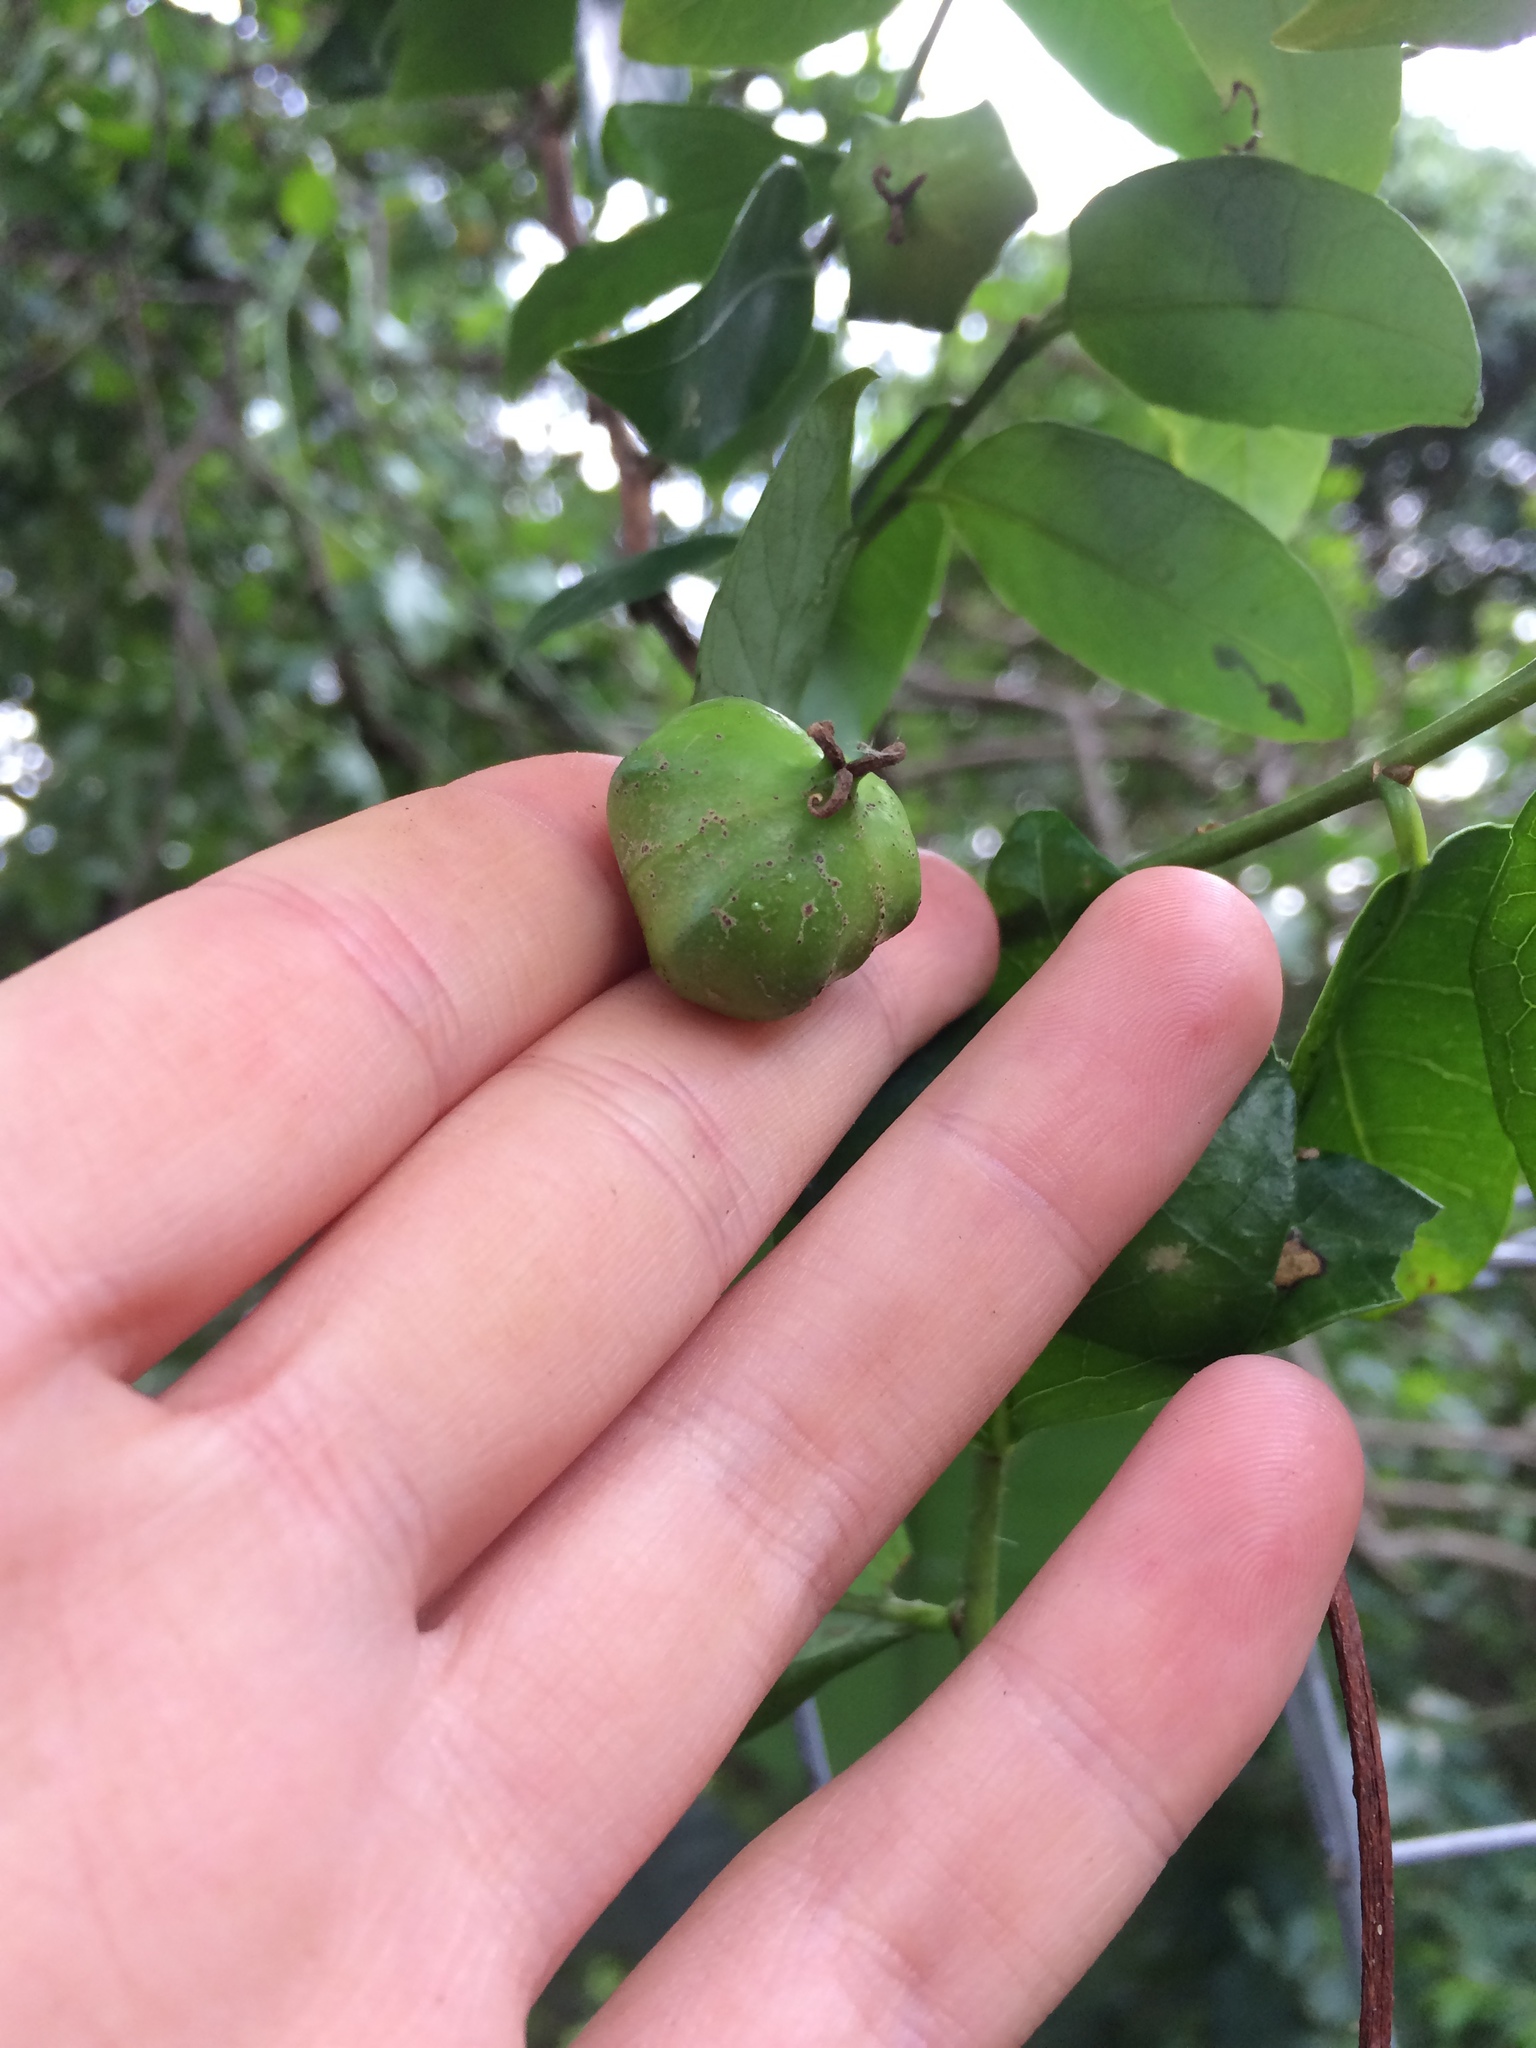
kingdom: Plantae
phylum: Tracheophyta
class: Magnoliopsida
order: Malpighiales
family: Euphorbiaceae
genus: Sclerocroton
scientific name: Sclerocroton integerrimus
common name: Duiker berry
